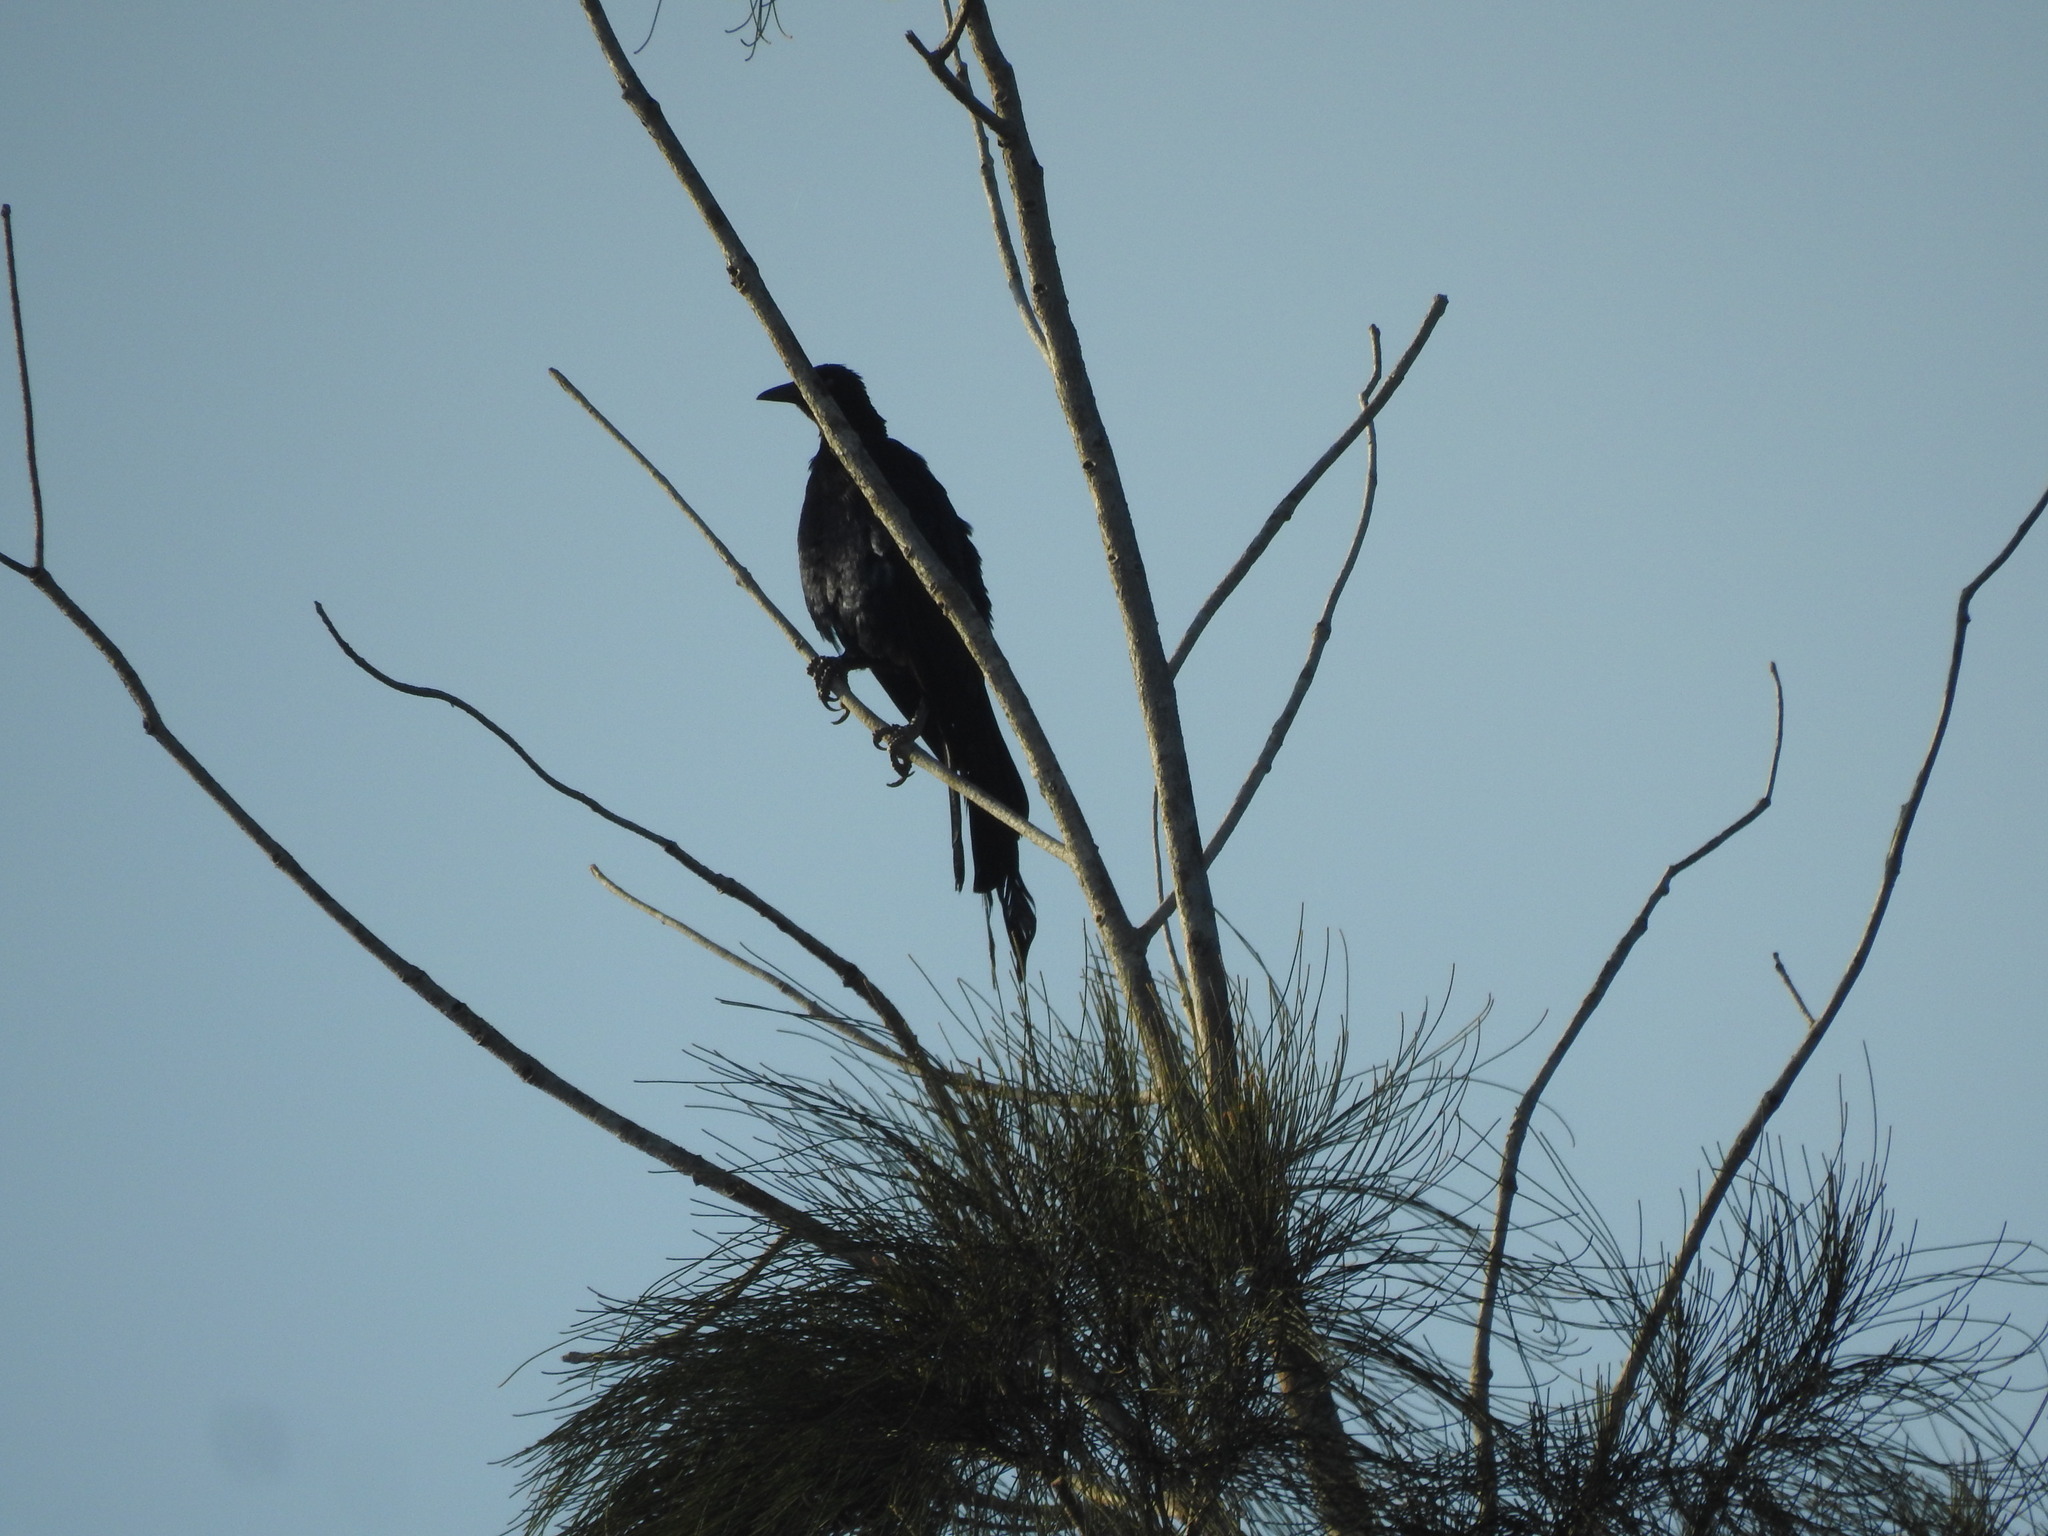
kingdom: Animalia
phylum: Chordata
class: Aves
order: Passeriformes
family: Icteridae
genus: Quiscalus
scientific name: Quiscalus mexicanus
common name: Great-tailed grackle
